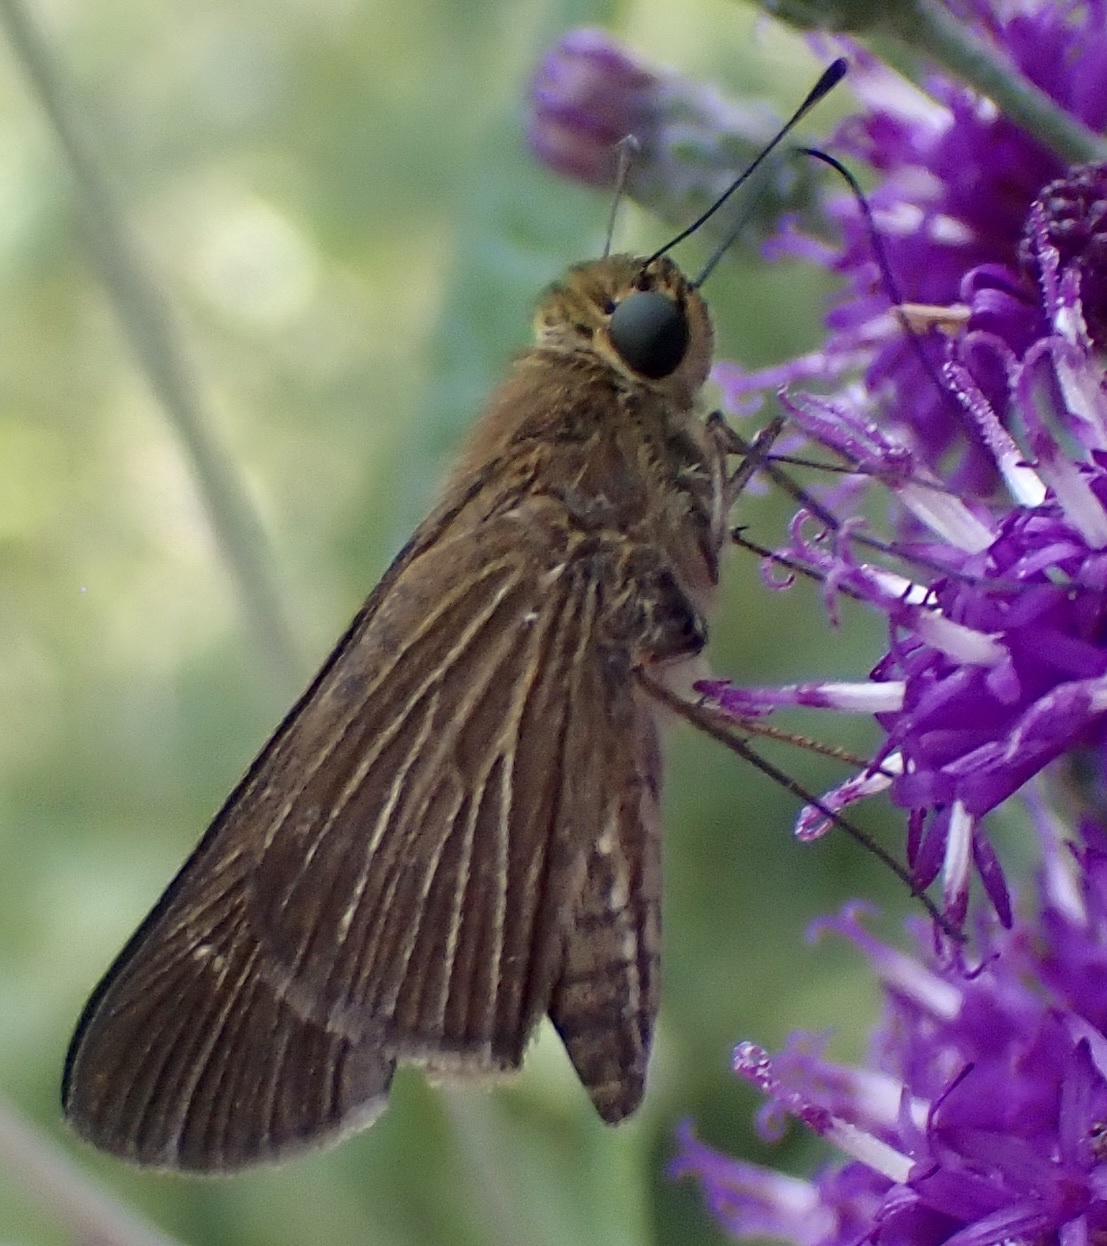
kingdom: Animalia
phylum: Arthropoda
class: Insecta
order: Lepidoptera
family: Hesperiidae
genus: Panoquina
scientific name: Panoquina ocola
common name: Ocola skipper
